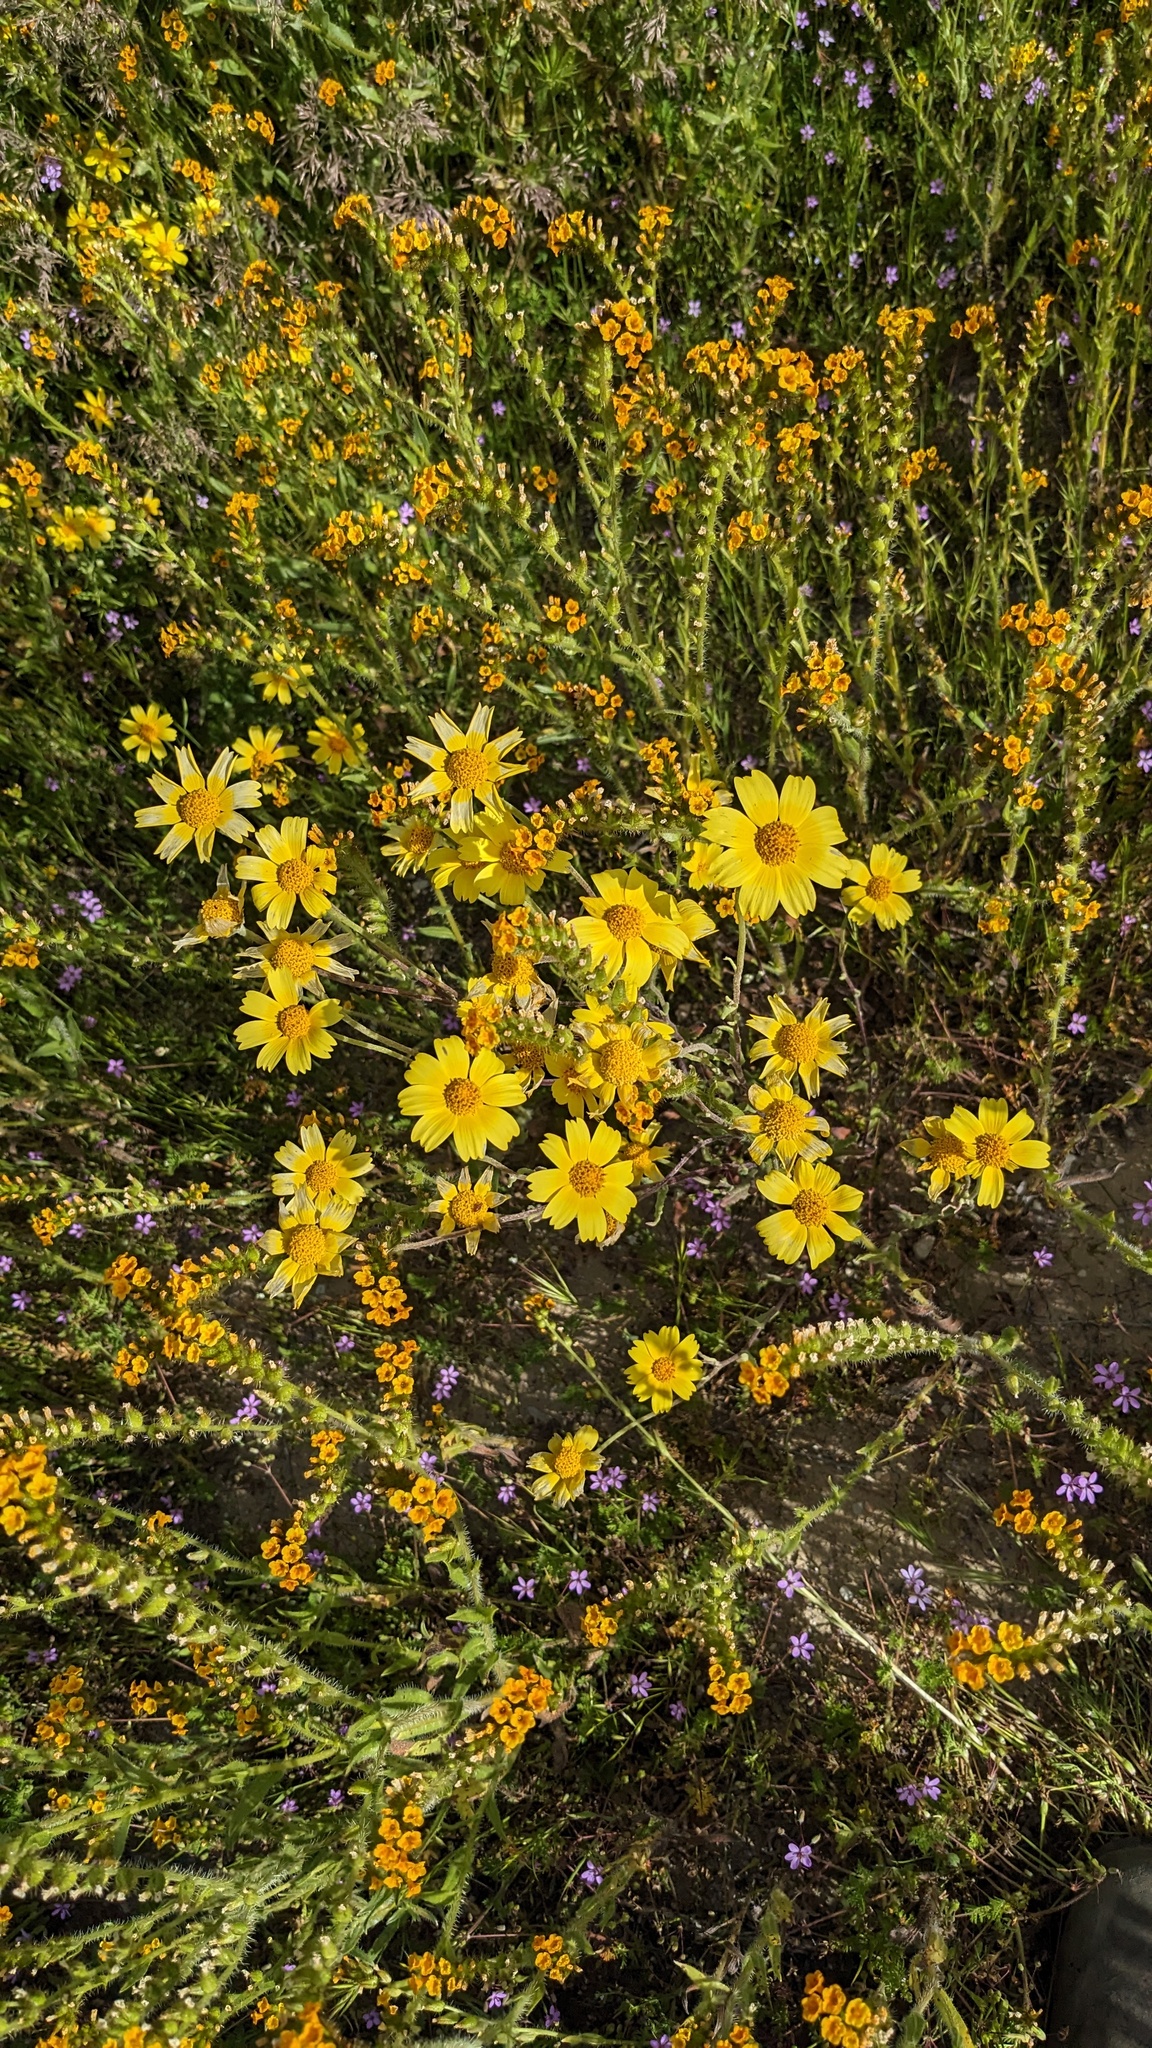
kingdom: Plantae
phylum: Tracheophyta
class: Magnoliopsida
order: Asterales
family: Asteraceae
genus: Monolopia
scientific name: Monolopia lanceolata
